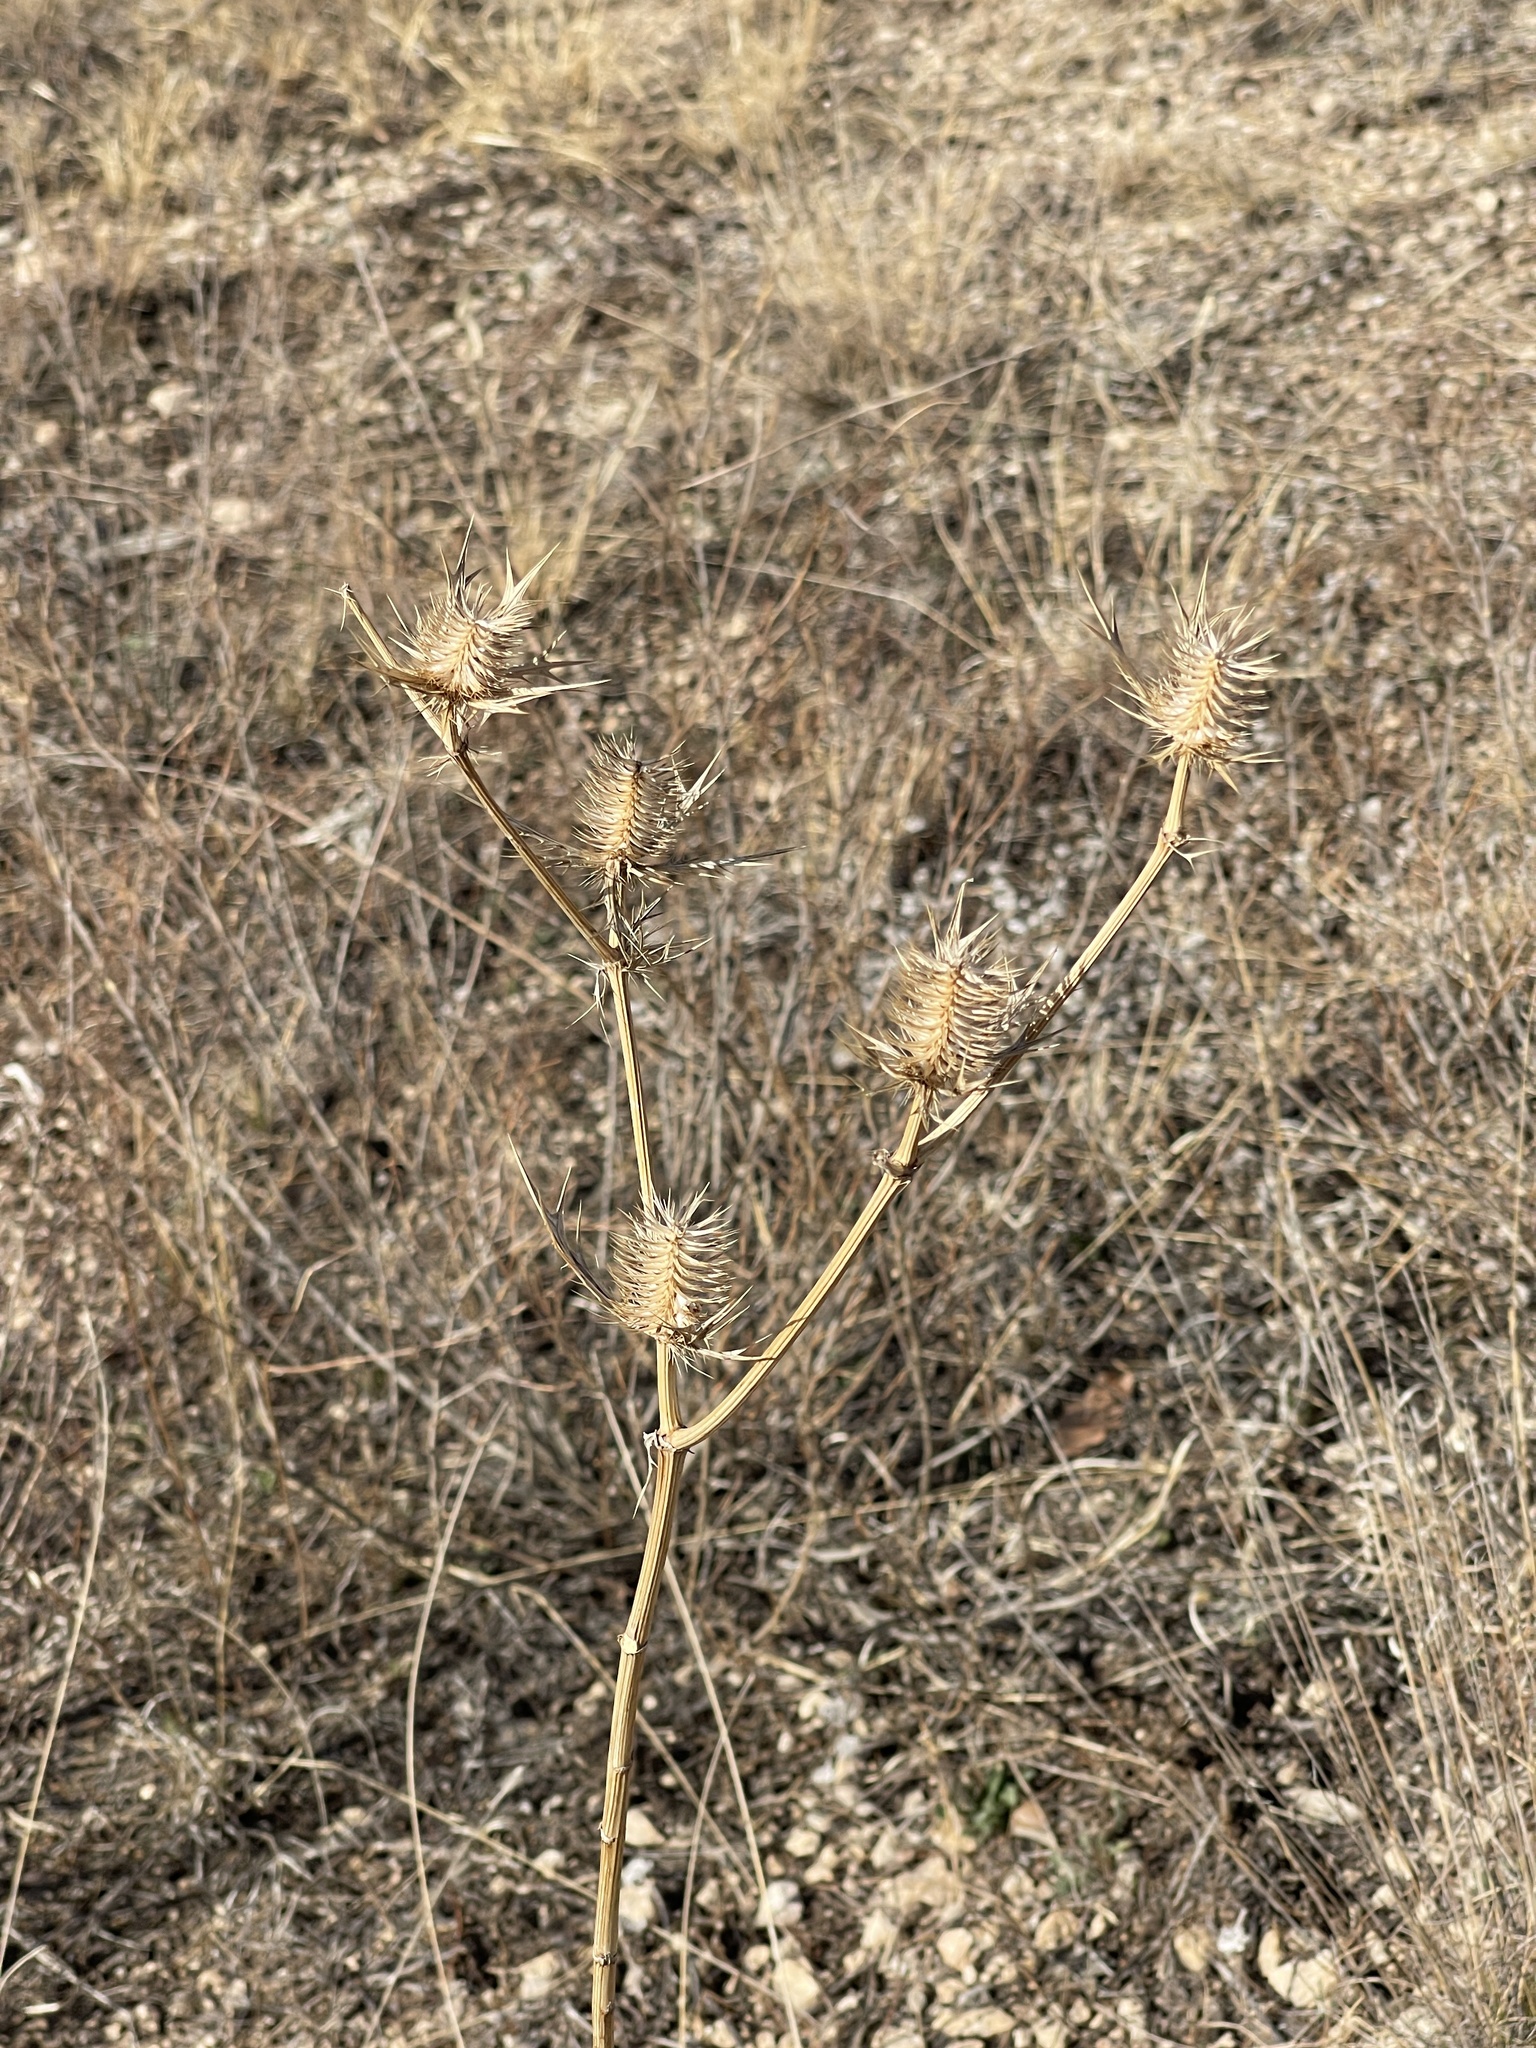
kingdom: Plantae
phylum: Tracheophyta
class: Magnoliopsida
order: Apiales
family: Apiaceae
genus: Eryngium
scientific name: Eryngium leavenworthii
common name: Leavenworth's eryngo
